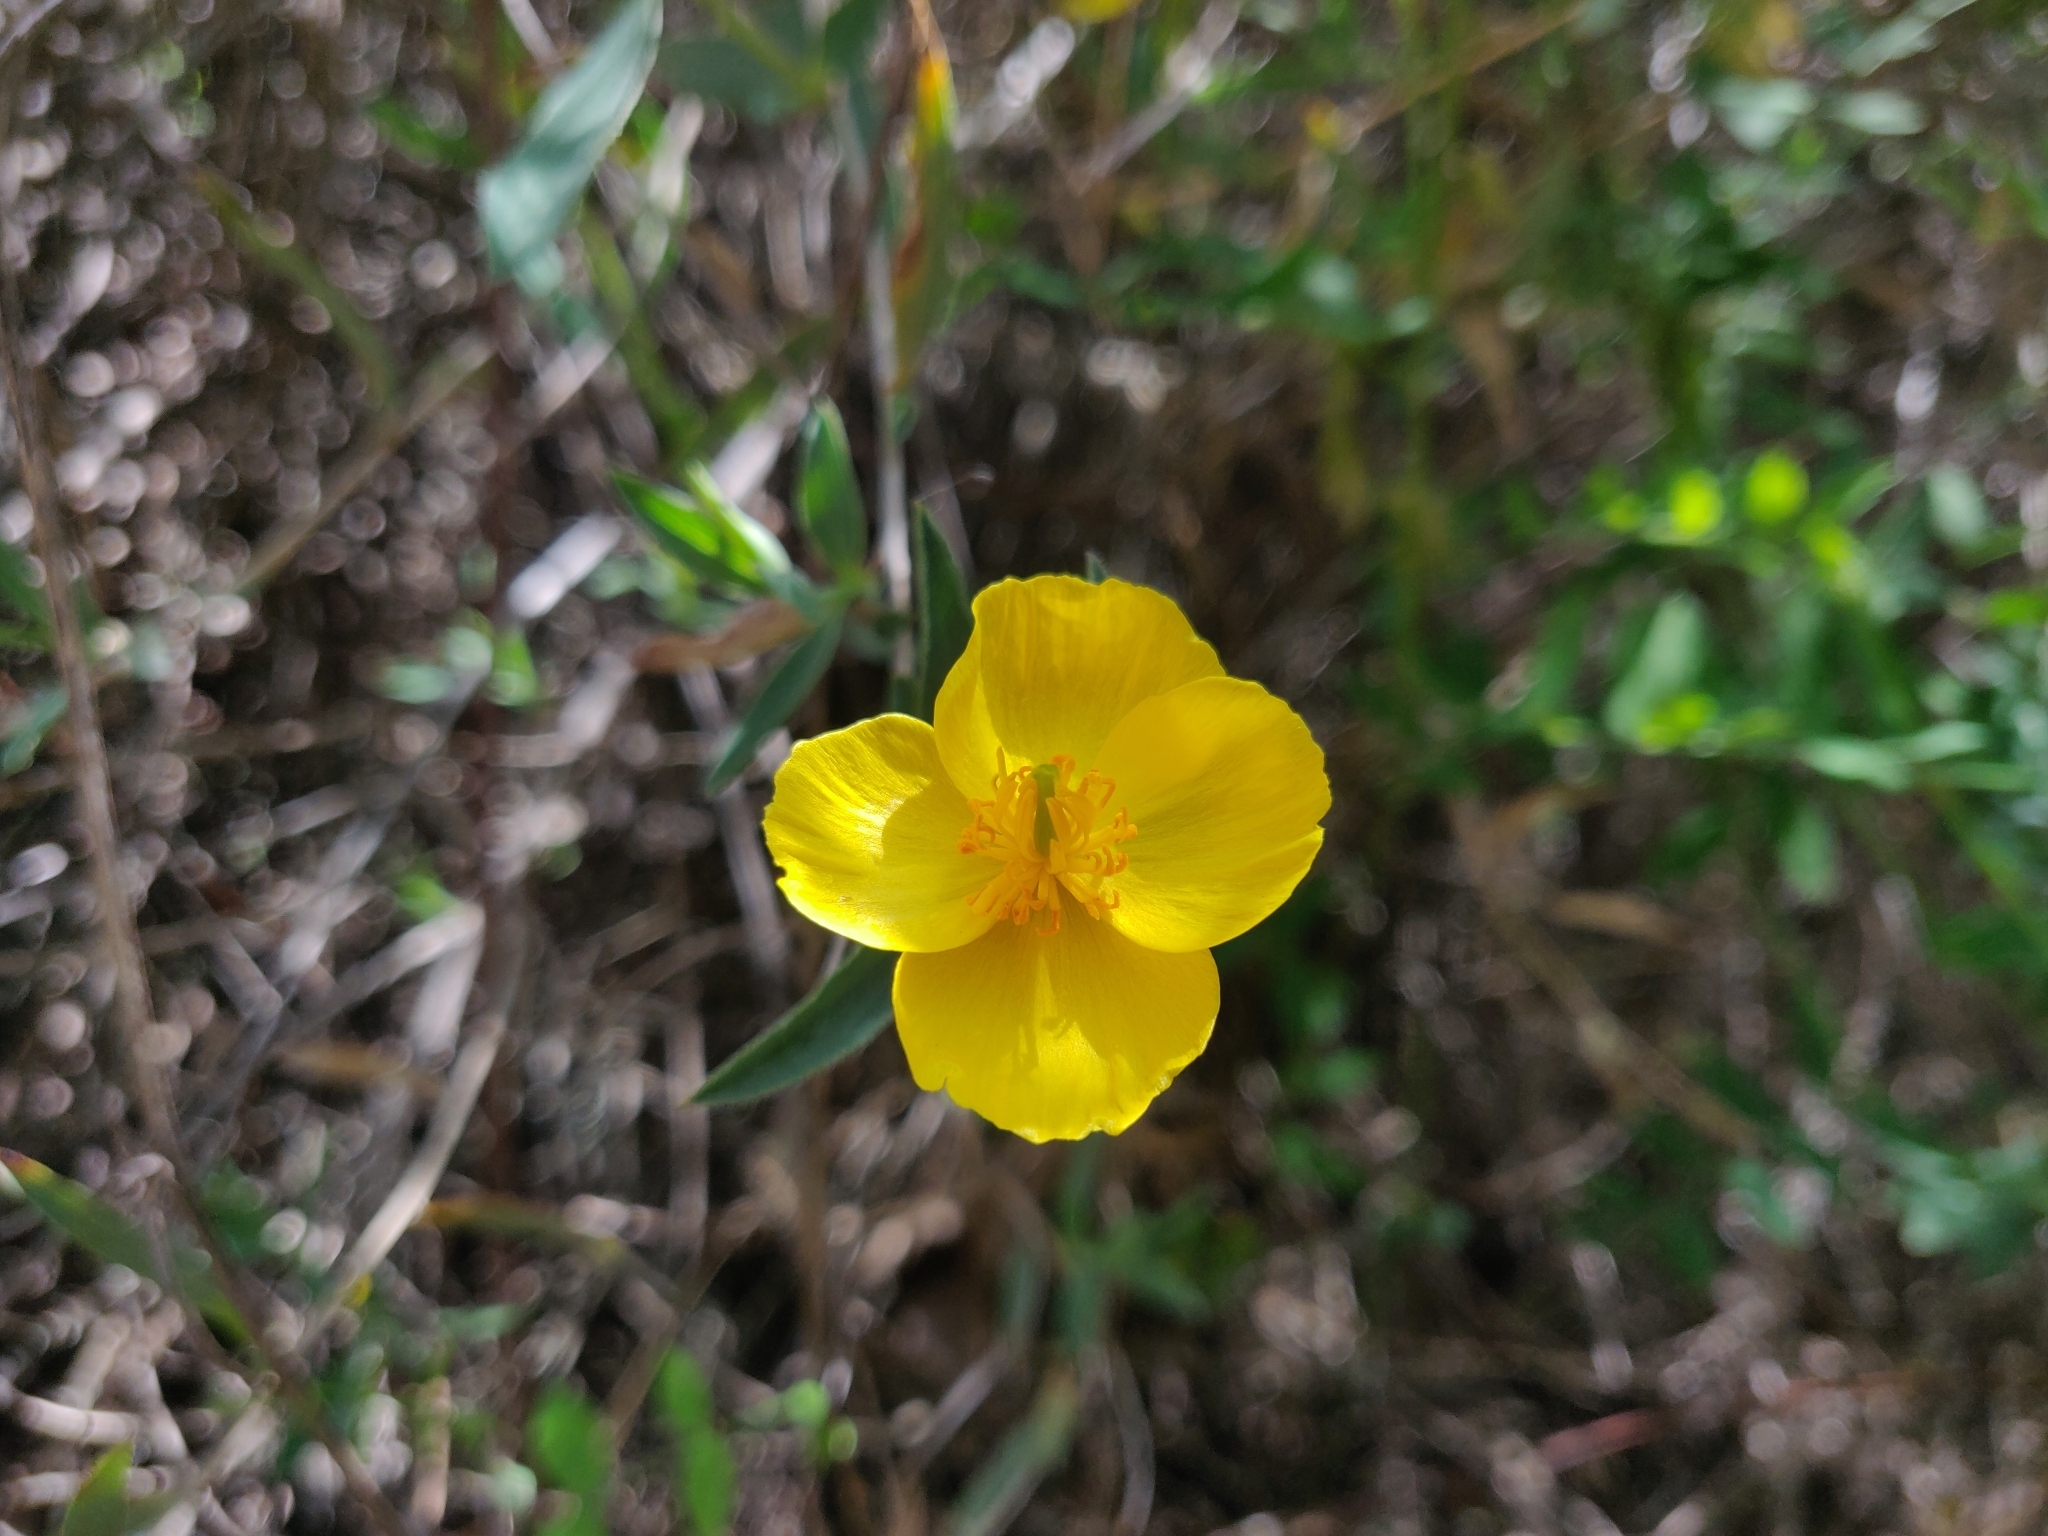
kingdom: Plantae
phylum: Tracheophyta
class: Magnoliopsida
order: Ranunculales
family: Papaveraceae
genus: Dendromecon
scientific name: Dendromecon rigida
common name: Tree poppy
